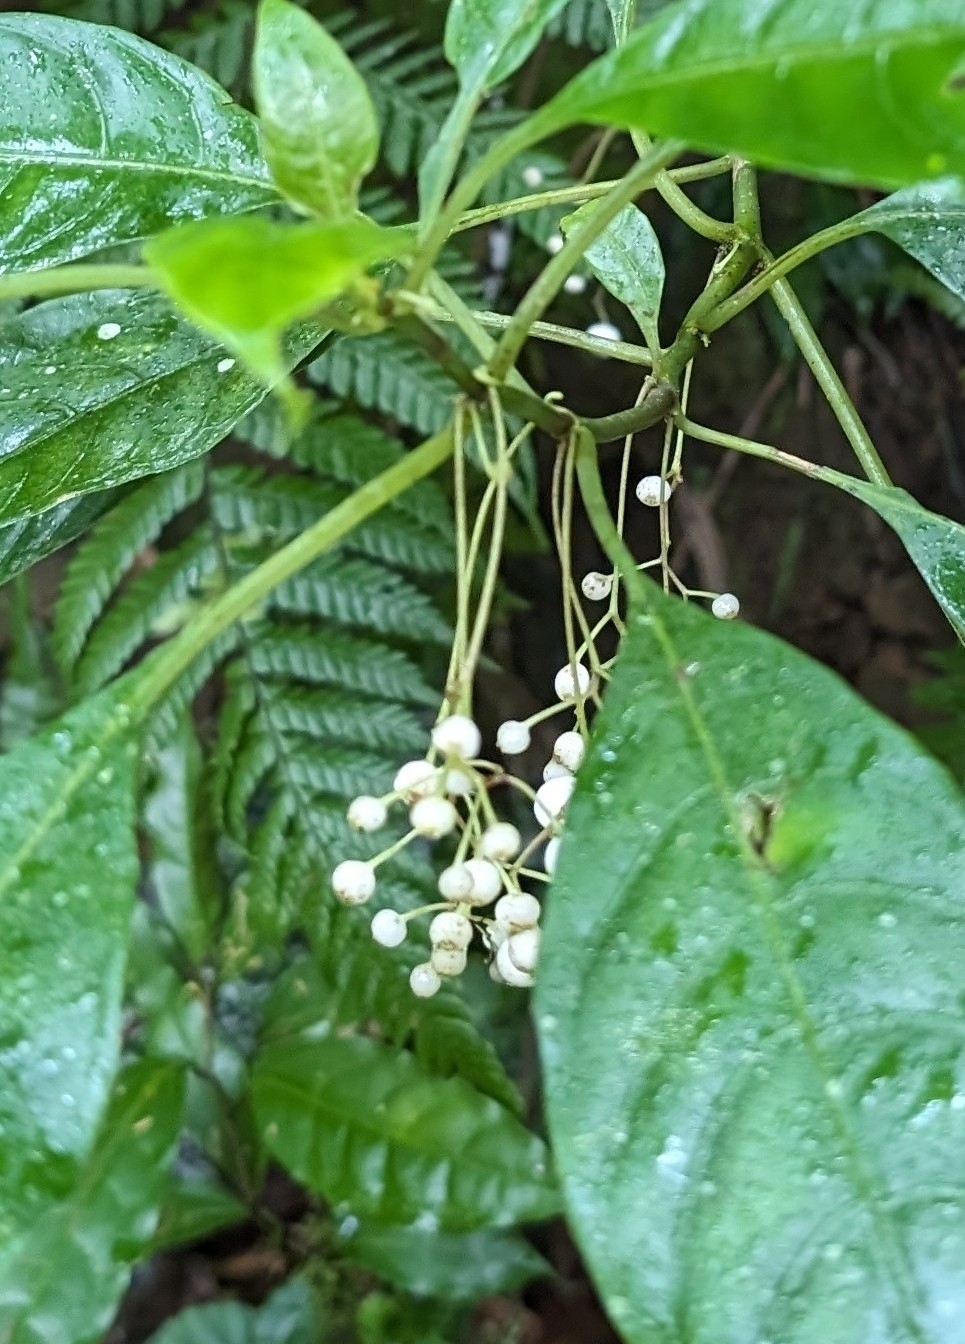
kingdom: Plantae
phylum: Tracheophyta
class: Magnoliopsida
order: Gentianales
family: Rubiaceae
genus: Hoffmannia
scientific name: Hoffmannia laxa
